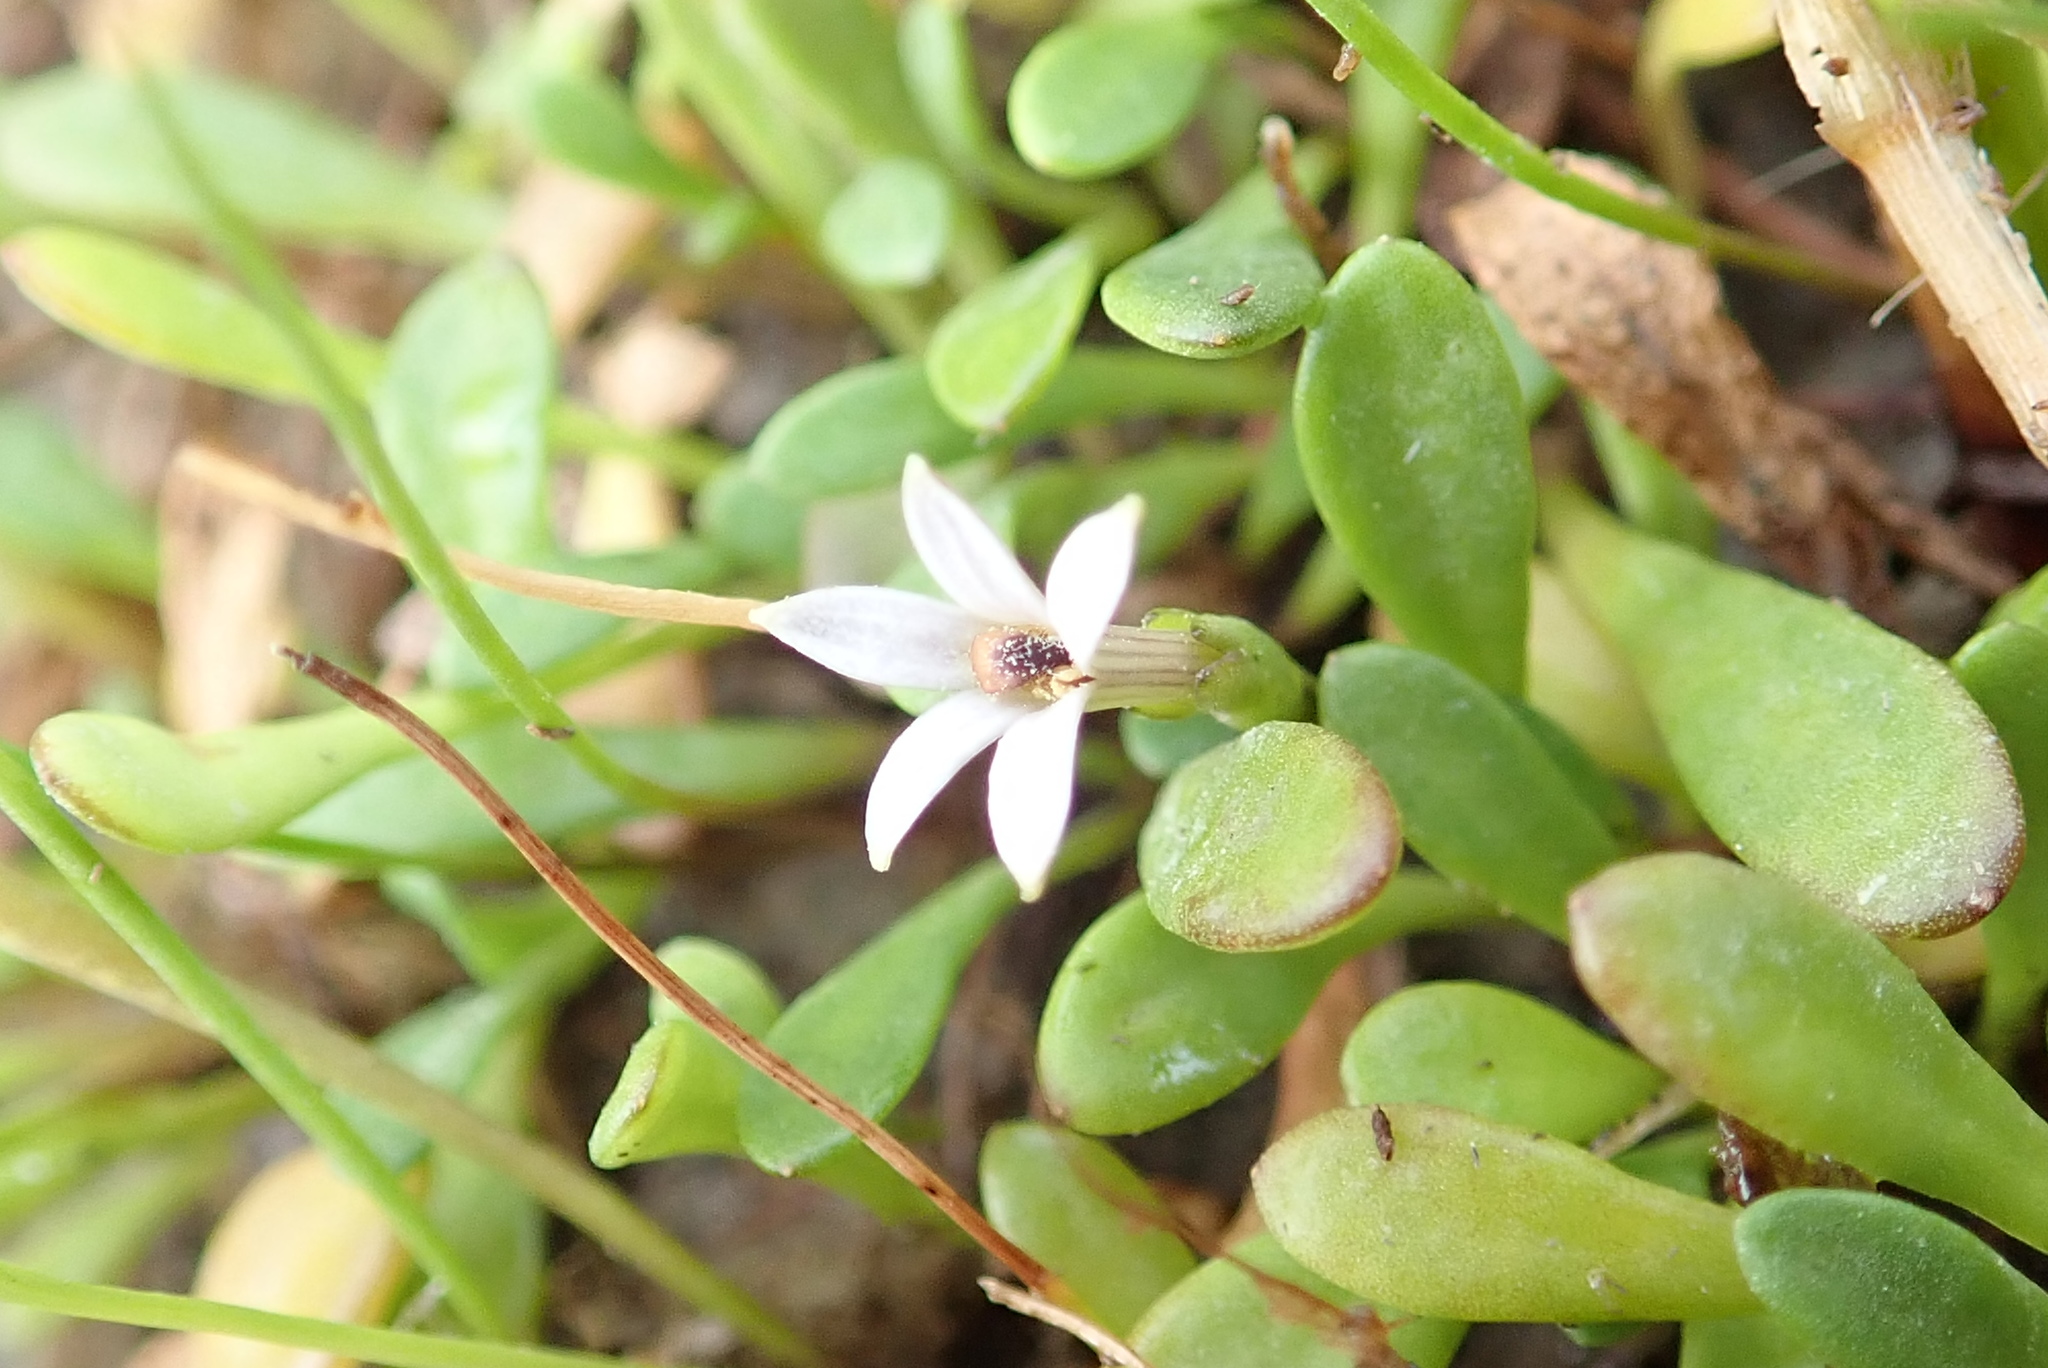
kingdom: Plantae
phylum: Tracheophyta
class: Magnoliopsida
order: Asterales
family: Goodeniaceae
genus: Goodenia
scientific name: Goodenia radicans
